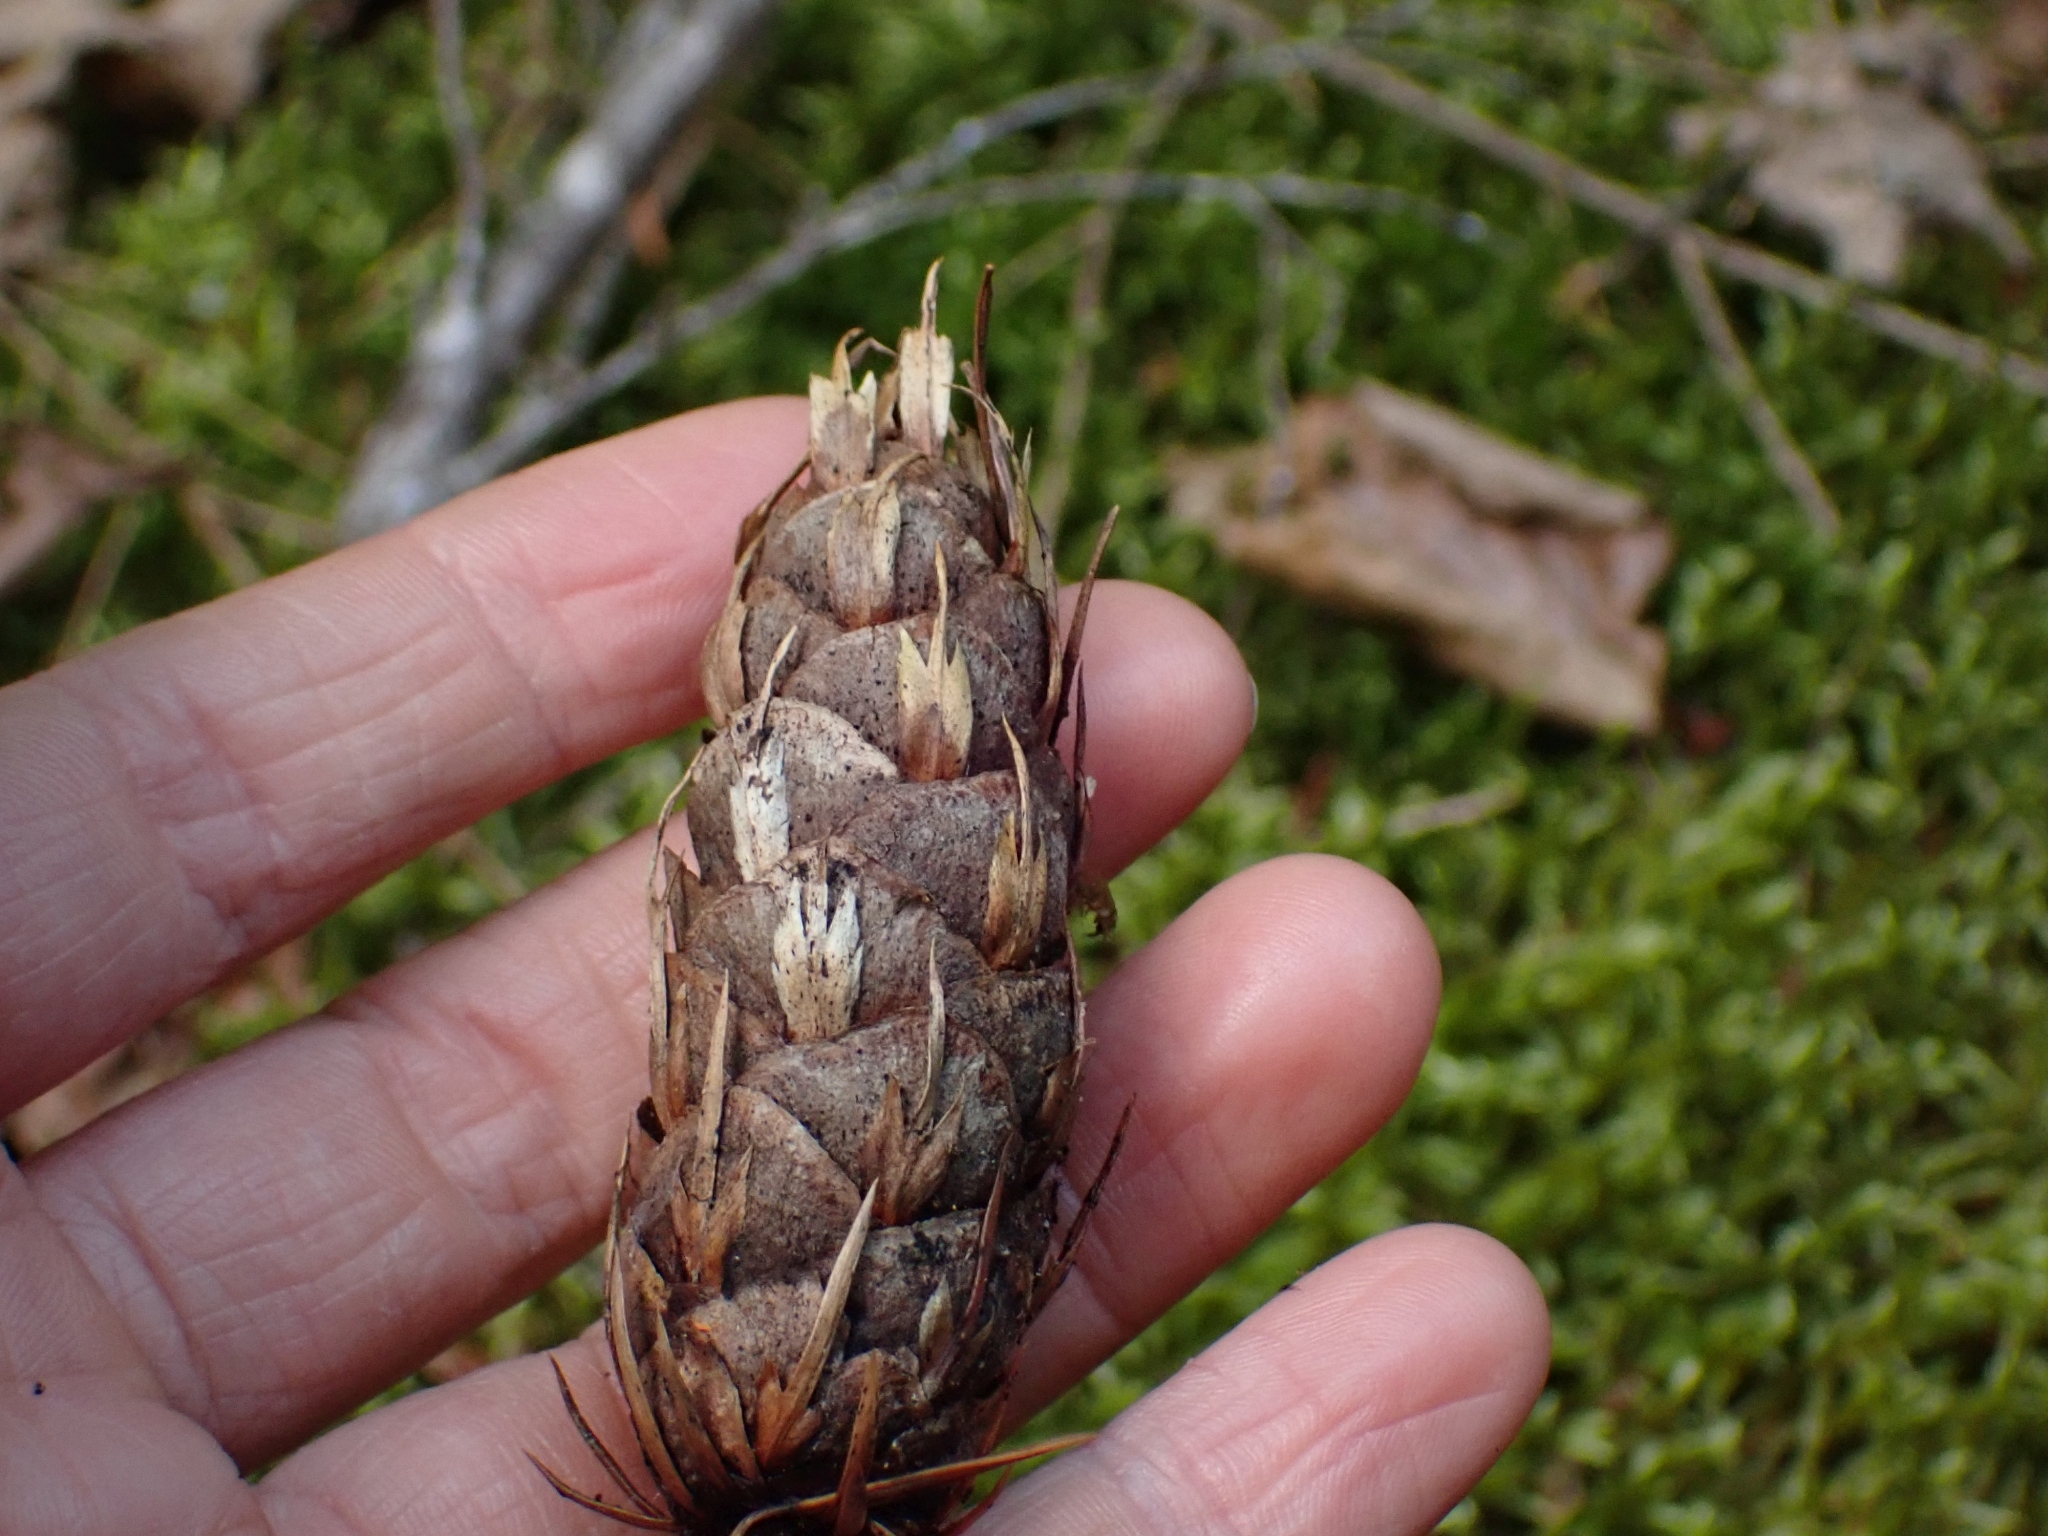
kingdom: Plantae
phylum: Tracheophyta
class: Pinopsida
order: Pinales
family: Pinaceae
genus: Pseudotsuga
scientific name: Pseudotsuga menziesii
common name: Douglas fir
